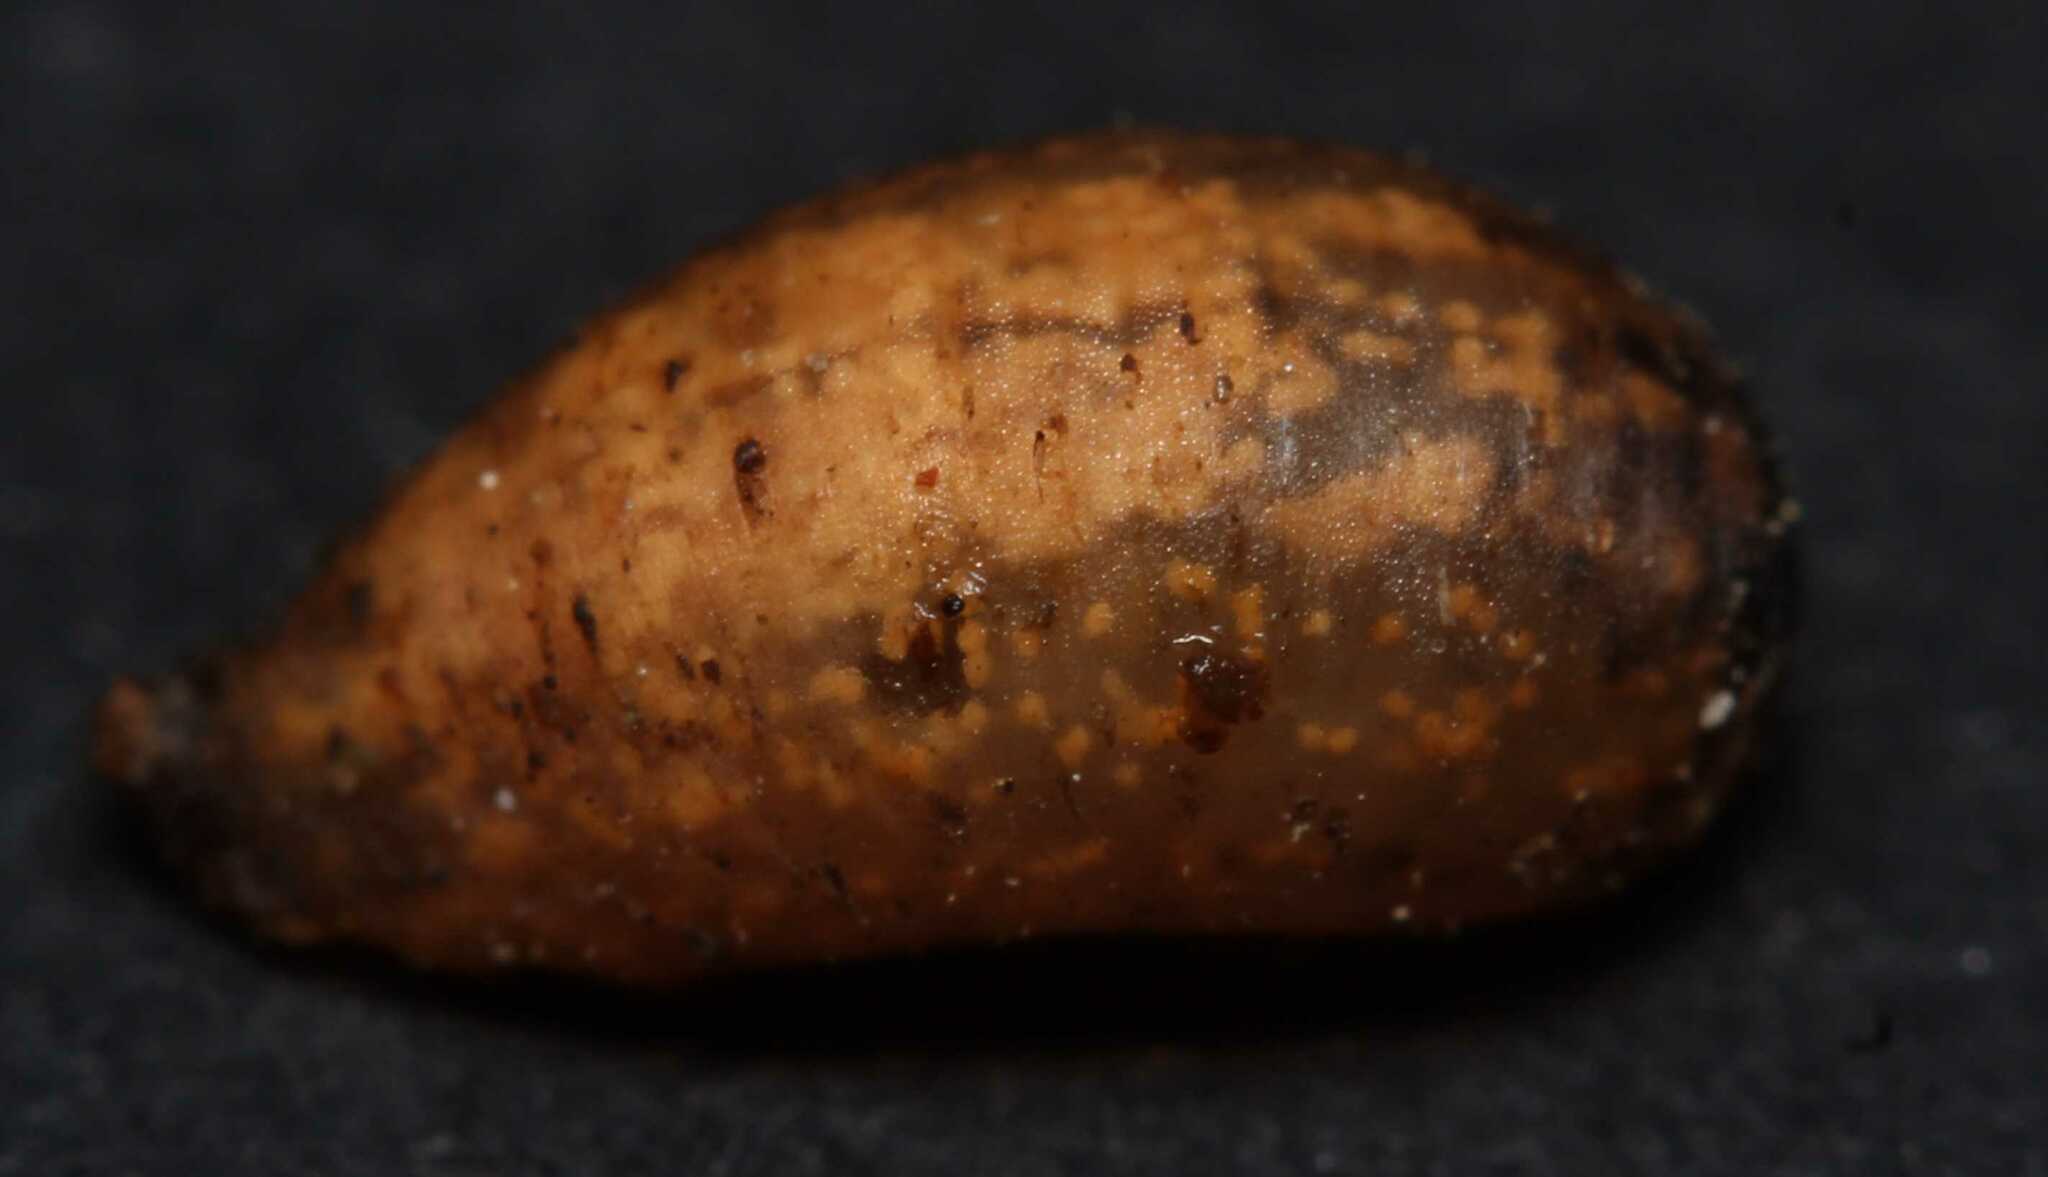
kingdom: Animalia
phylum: Arthropoda
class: Insecta
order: Diptera
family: Syrphidae
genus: Syrphus
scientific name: Syrphus vitripennis
